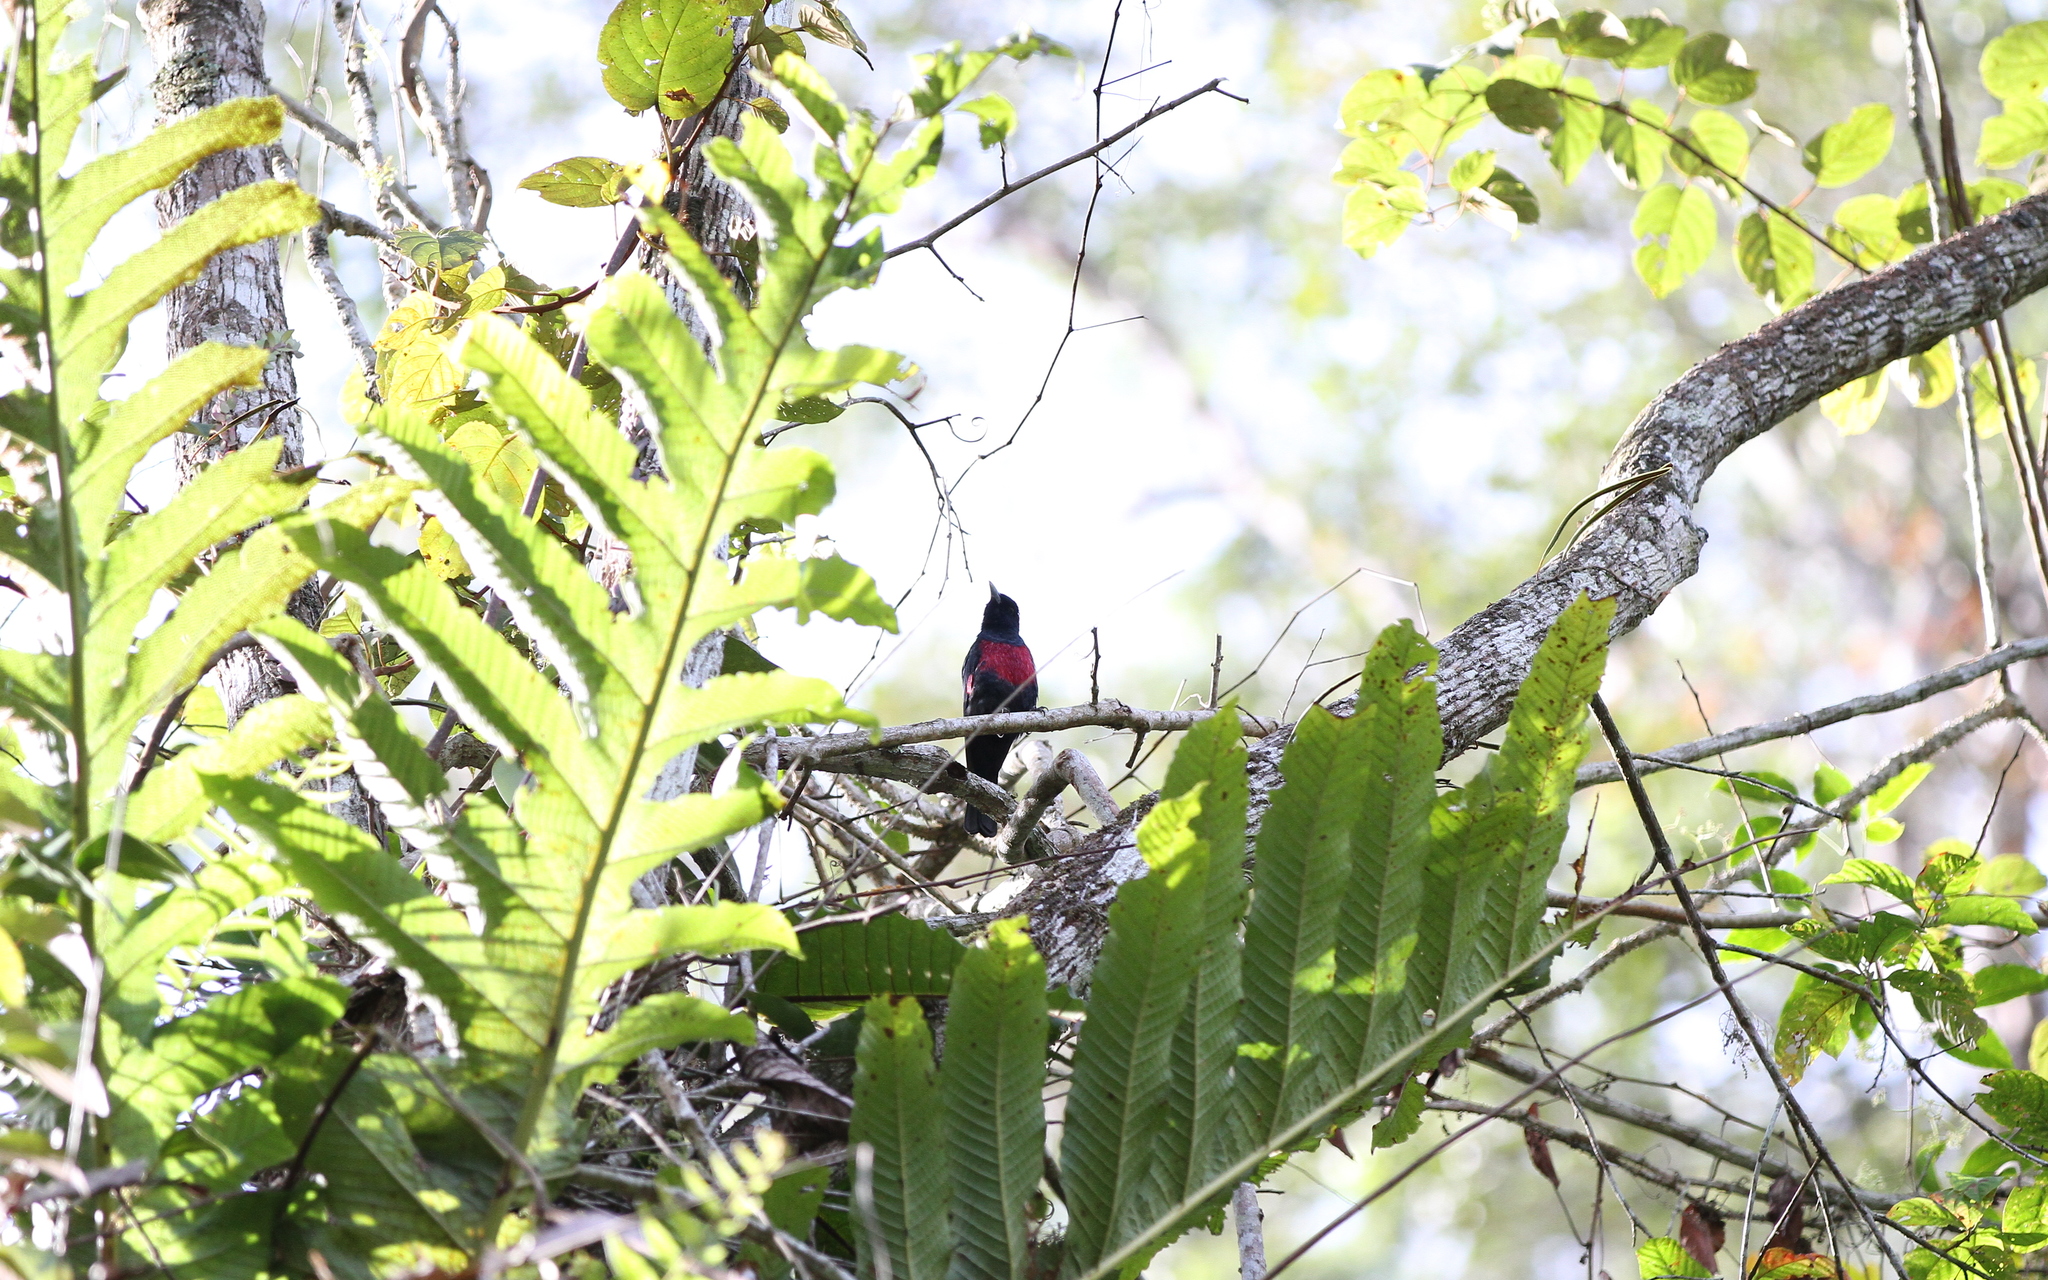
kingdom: Animalia
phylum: Chordata
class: Aves
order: Passeriformes
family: Oriolidae
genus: Oriolus
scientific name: Oriolus cruentus
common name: Black-and-crimson oriole
